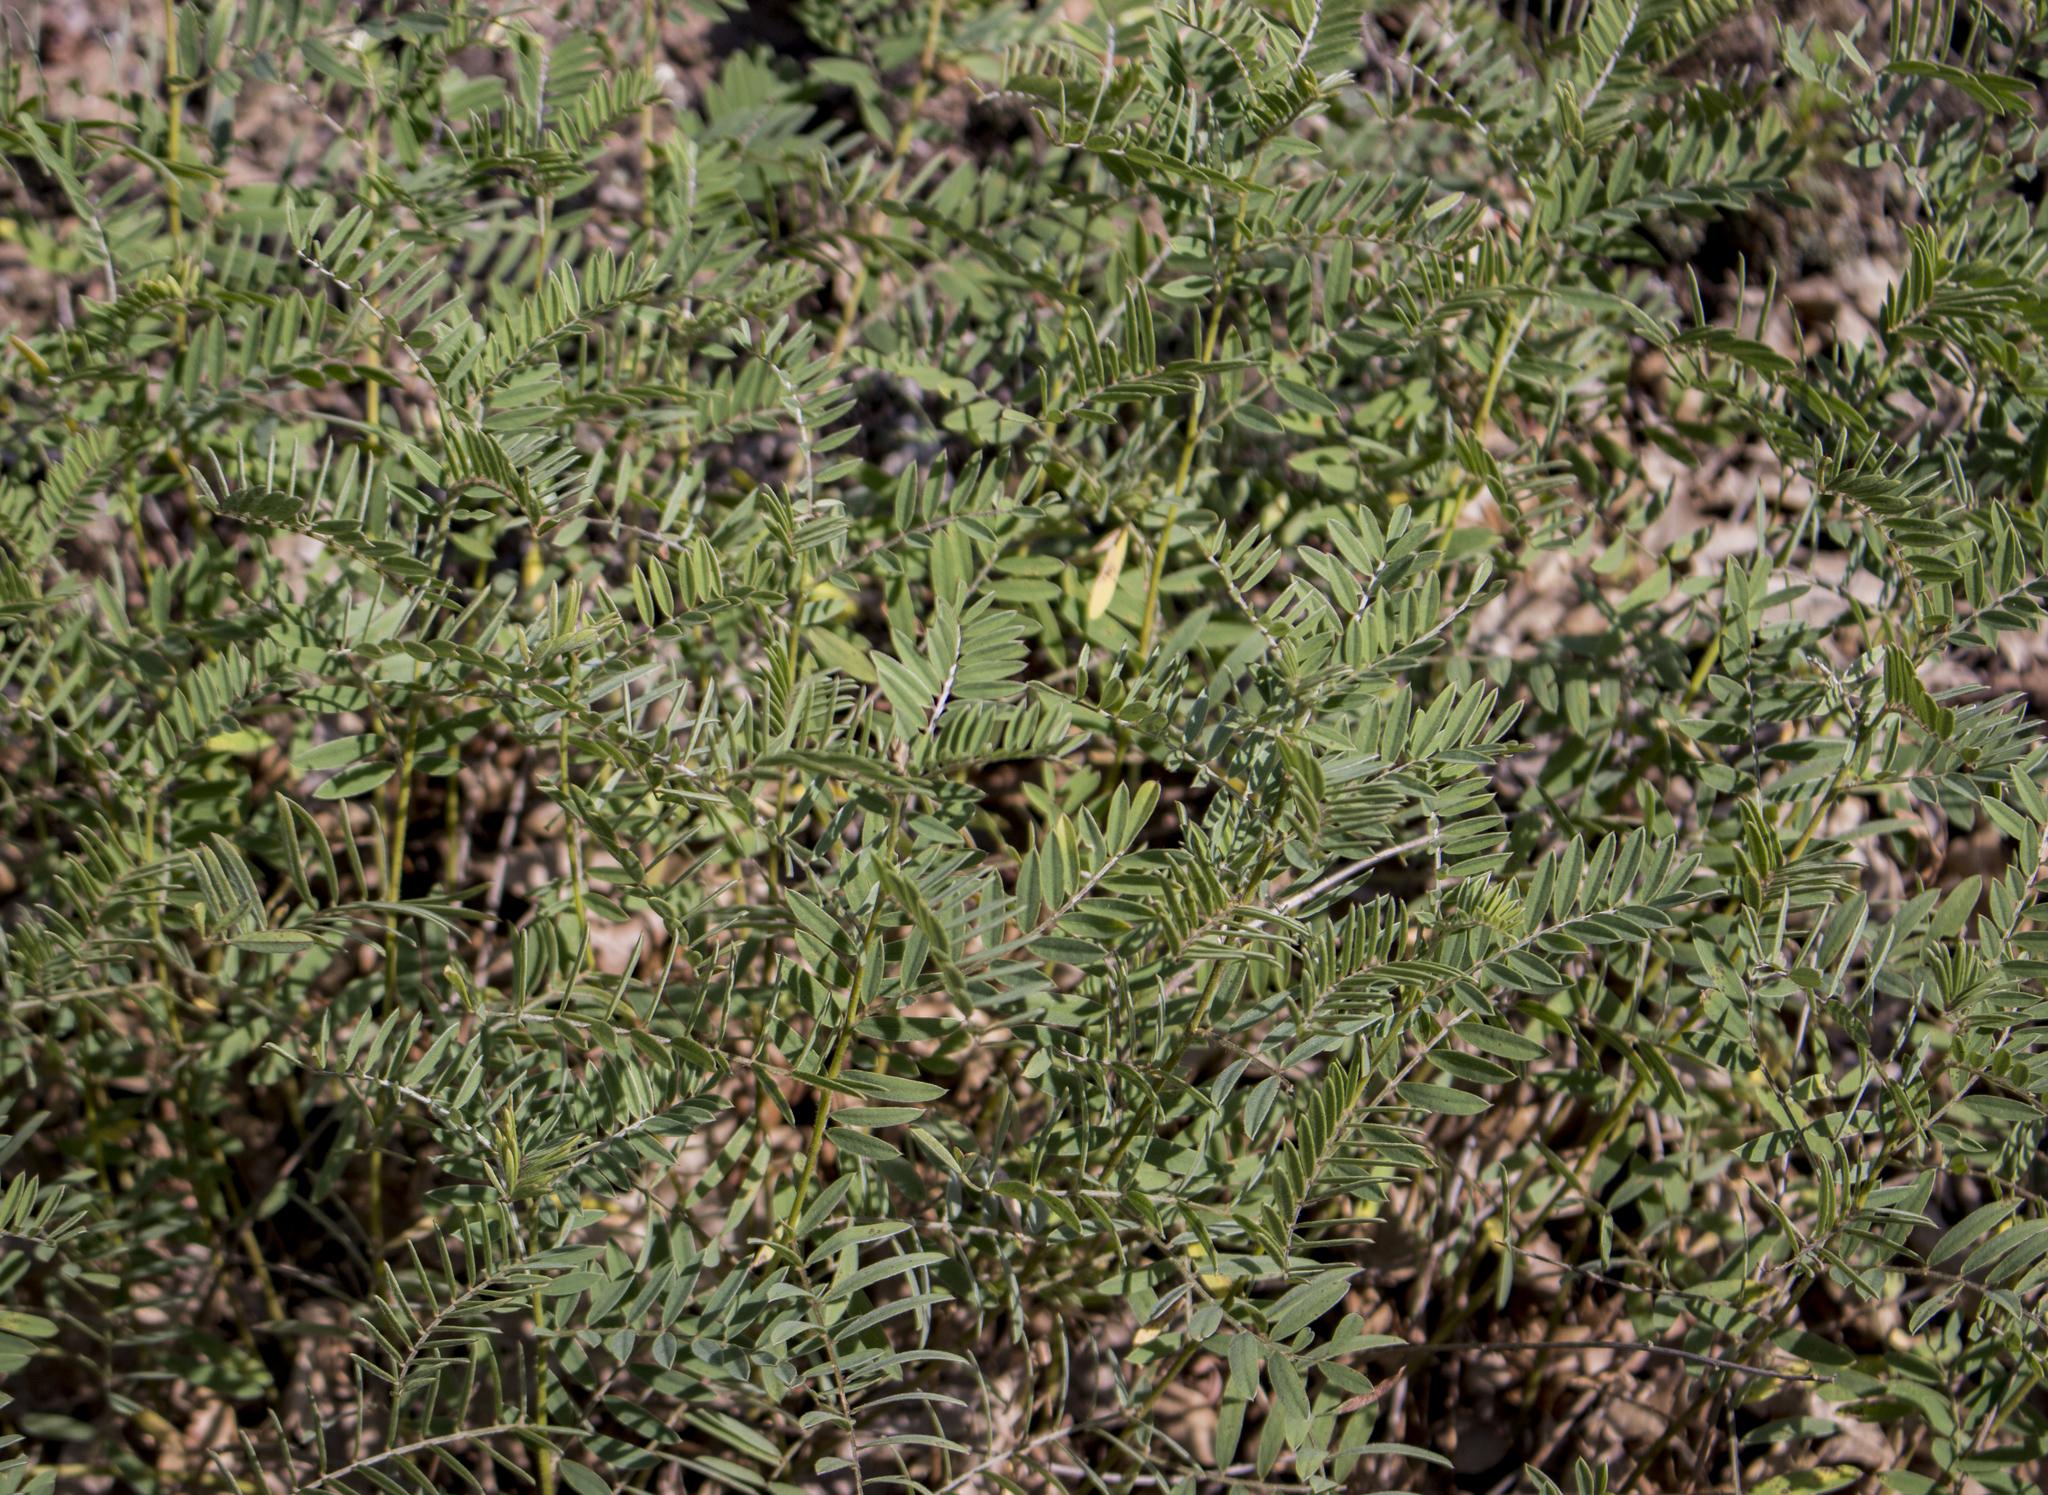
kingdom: Plantae
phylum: Tracheophyta
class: Magnoliopsida
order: Fabales
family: Fabaceae
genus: Tephrosia
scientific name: Tephrosia virginiana
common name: Rabbit-pea
